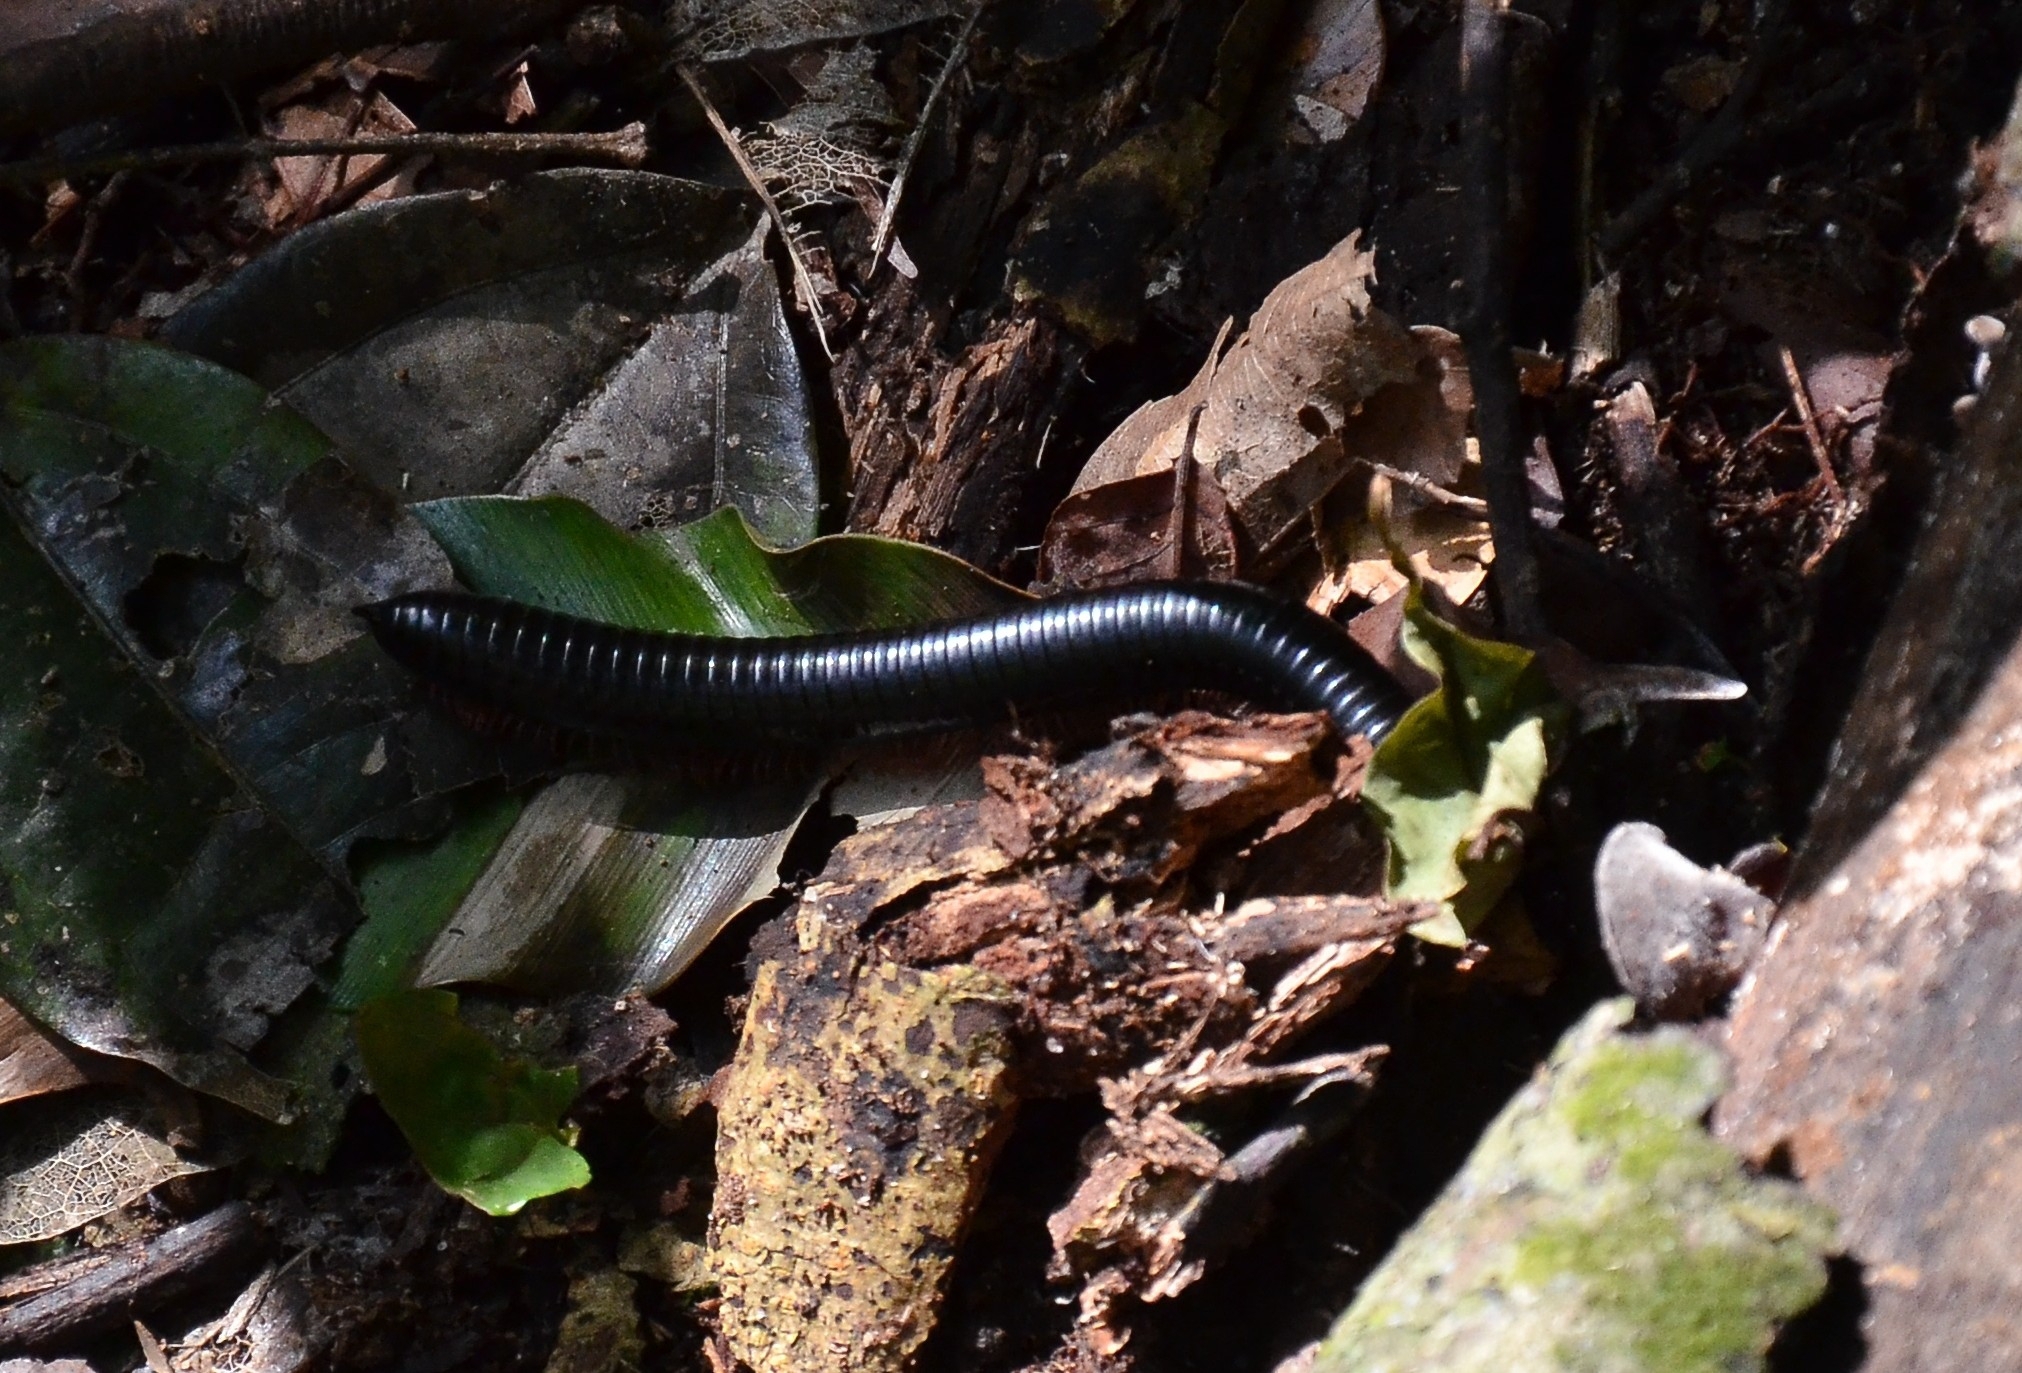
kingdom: Animalia
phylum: Arthropoda
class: Diplopoda
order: Spirostreptida
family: Harpagophoridae
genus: Phyllogonostreptus
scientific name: Phyllogonostreptus nigrolabiatus
